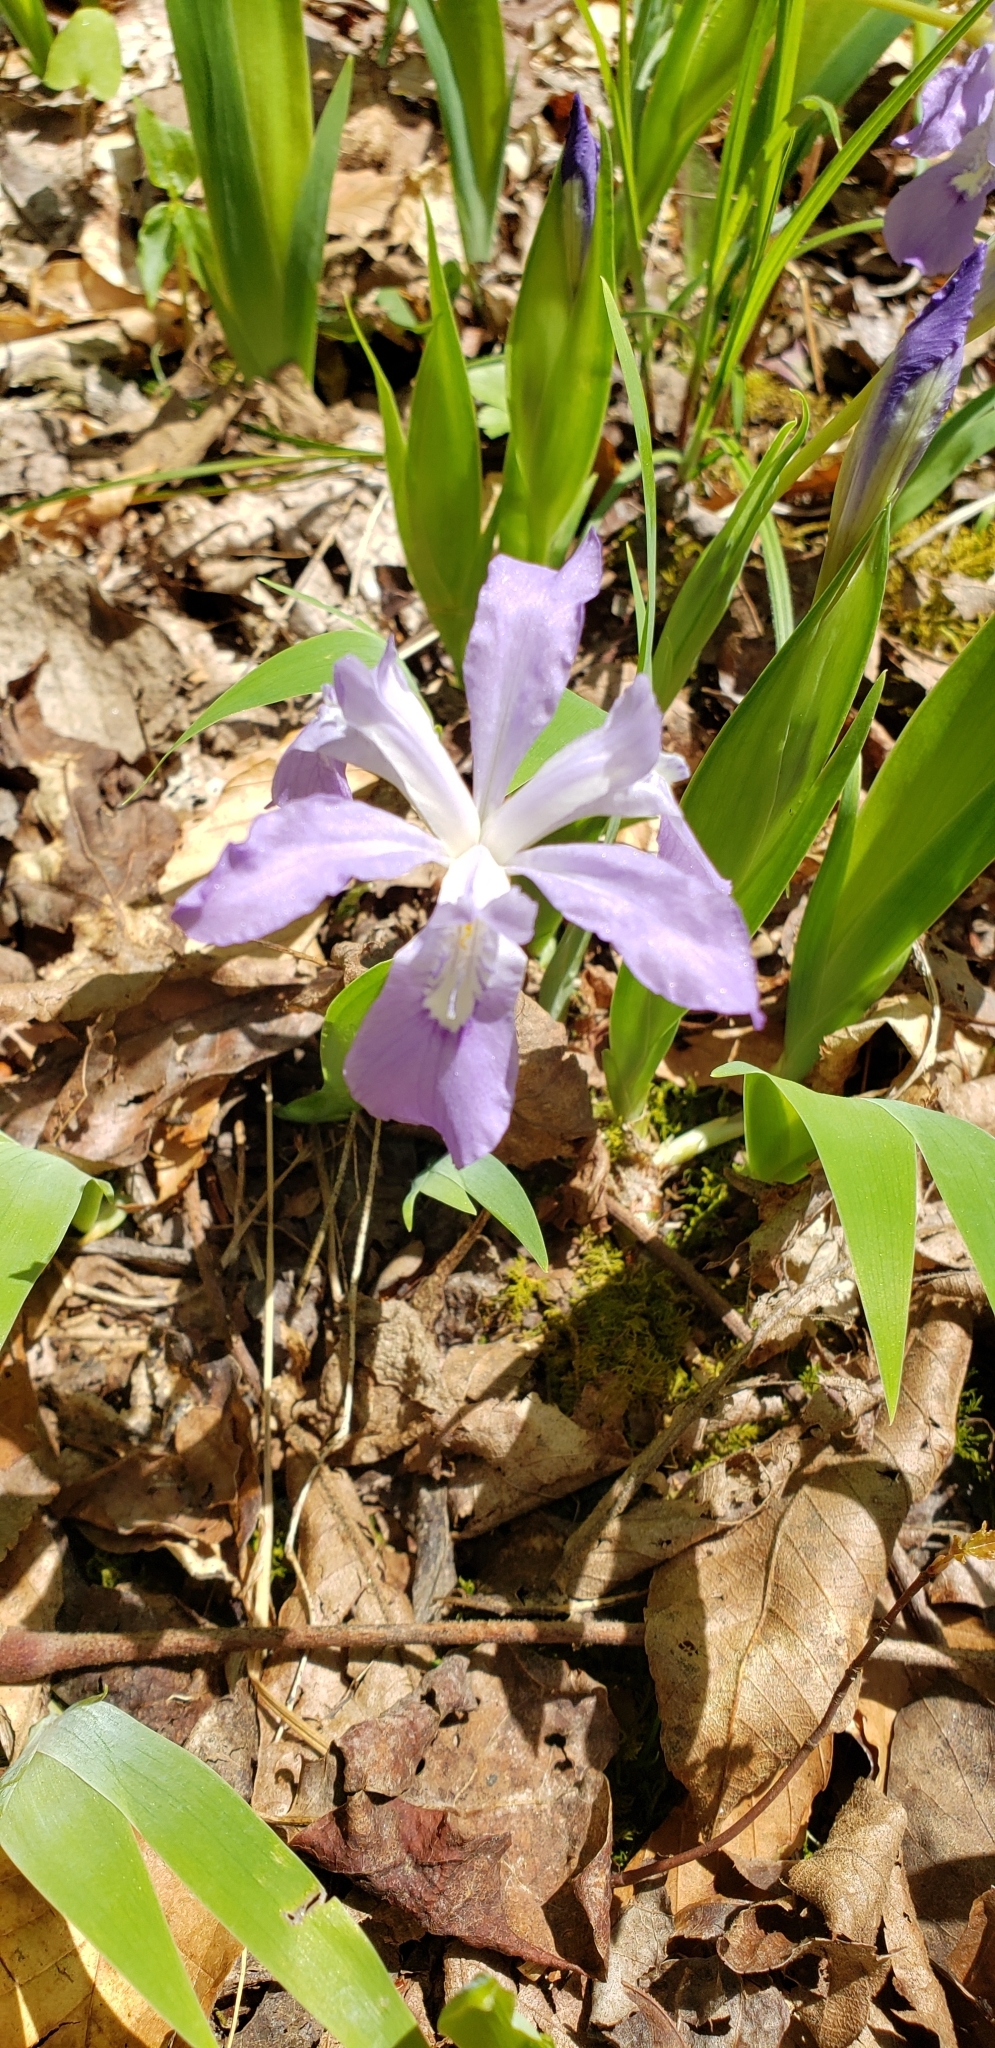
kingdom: Plantae
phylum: Tracheophyta
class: Liliopsida
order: Asparagales
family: Iridaceae
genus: Iris
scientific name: Iris cristata
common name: Crested iris
